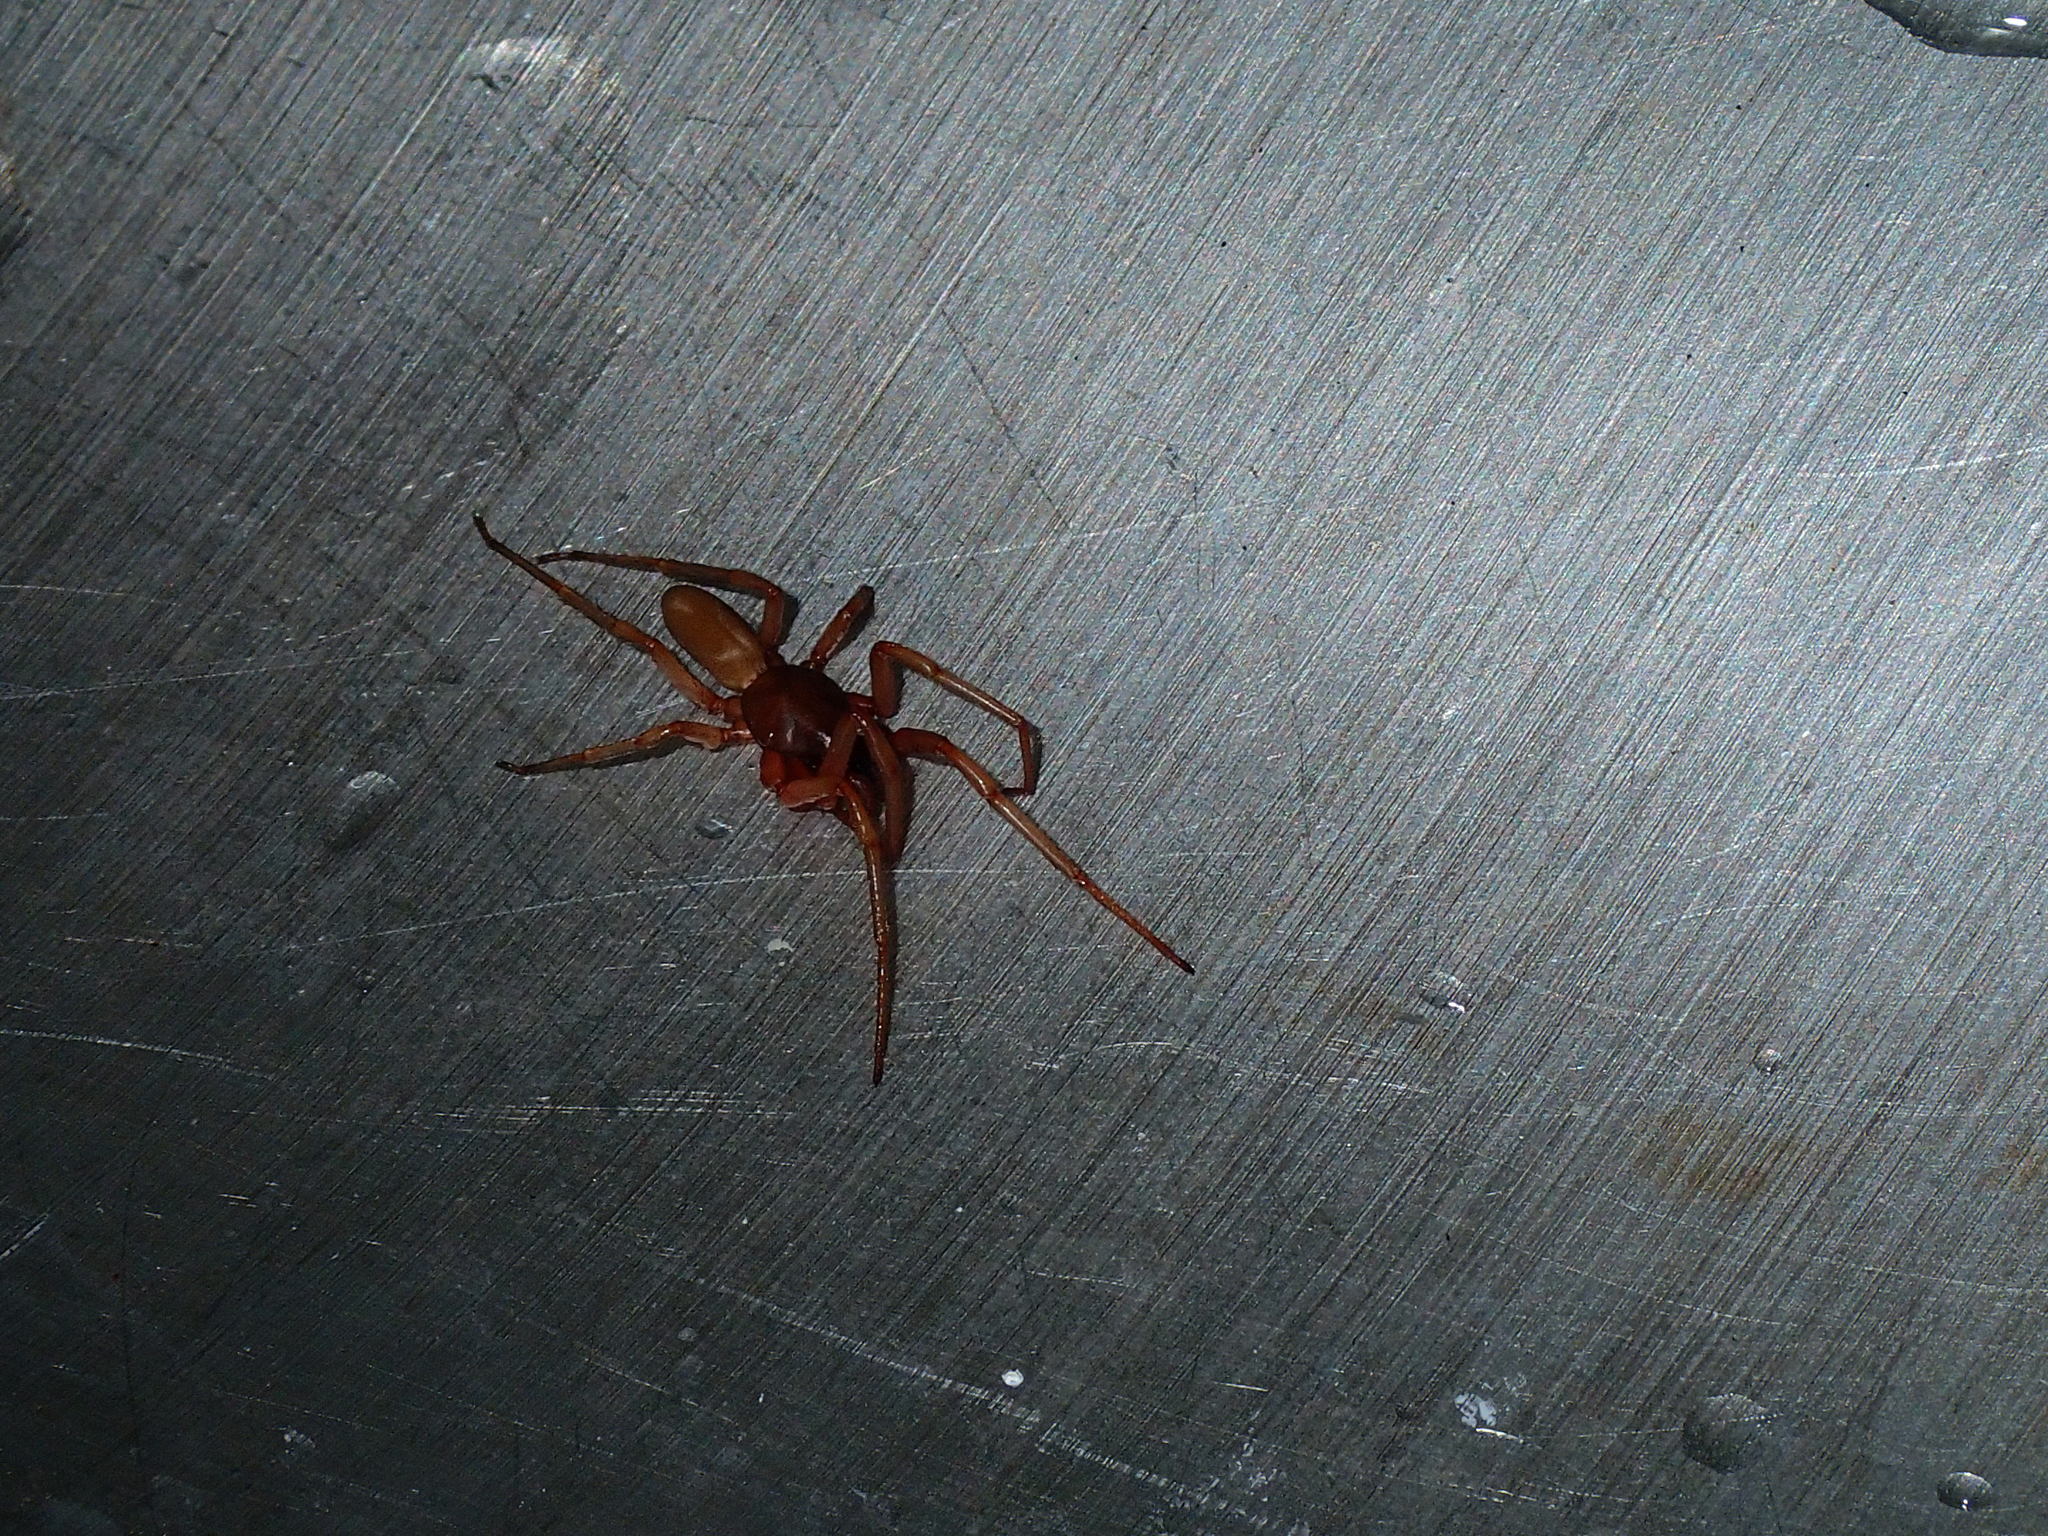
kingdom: Animalia
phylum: Arthropoda
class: Arachnida
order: Araneae
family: Dysderidae
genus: Dysdera
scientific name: Dysdera crocata
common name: Woodlouse spider
